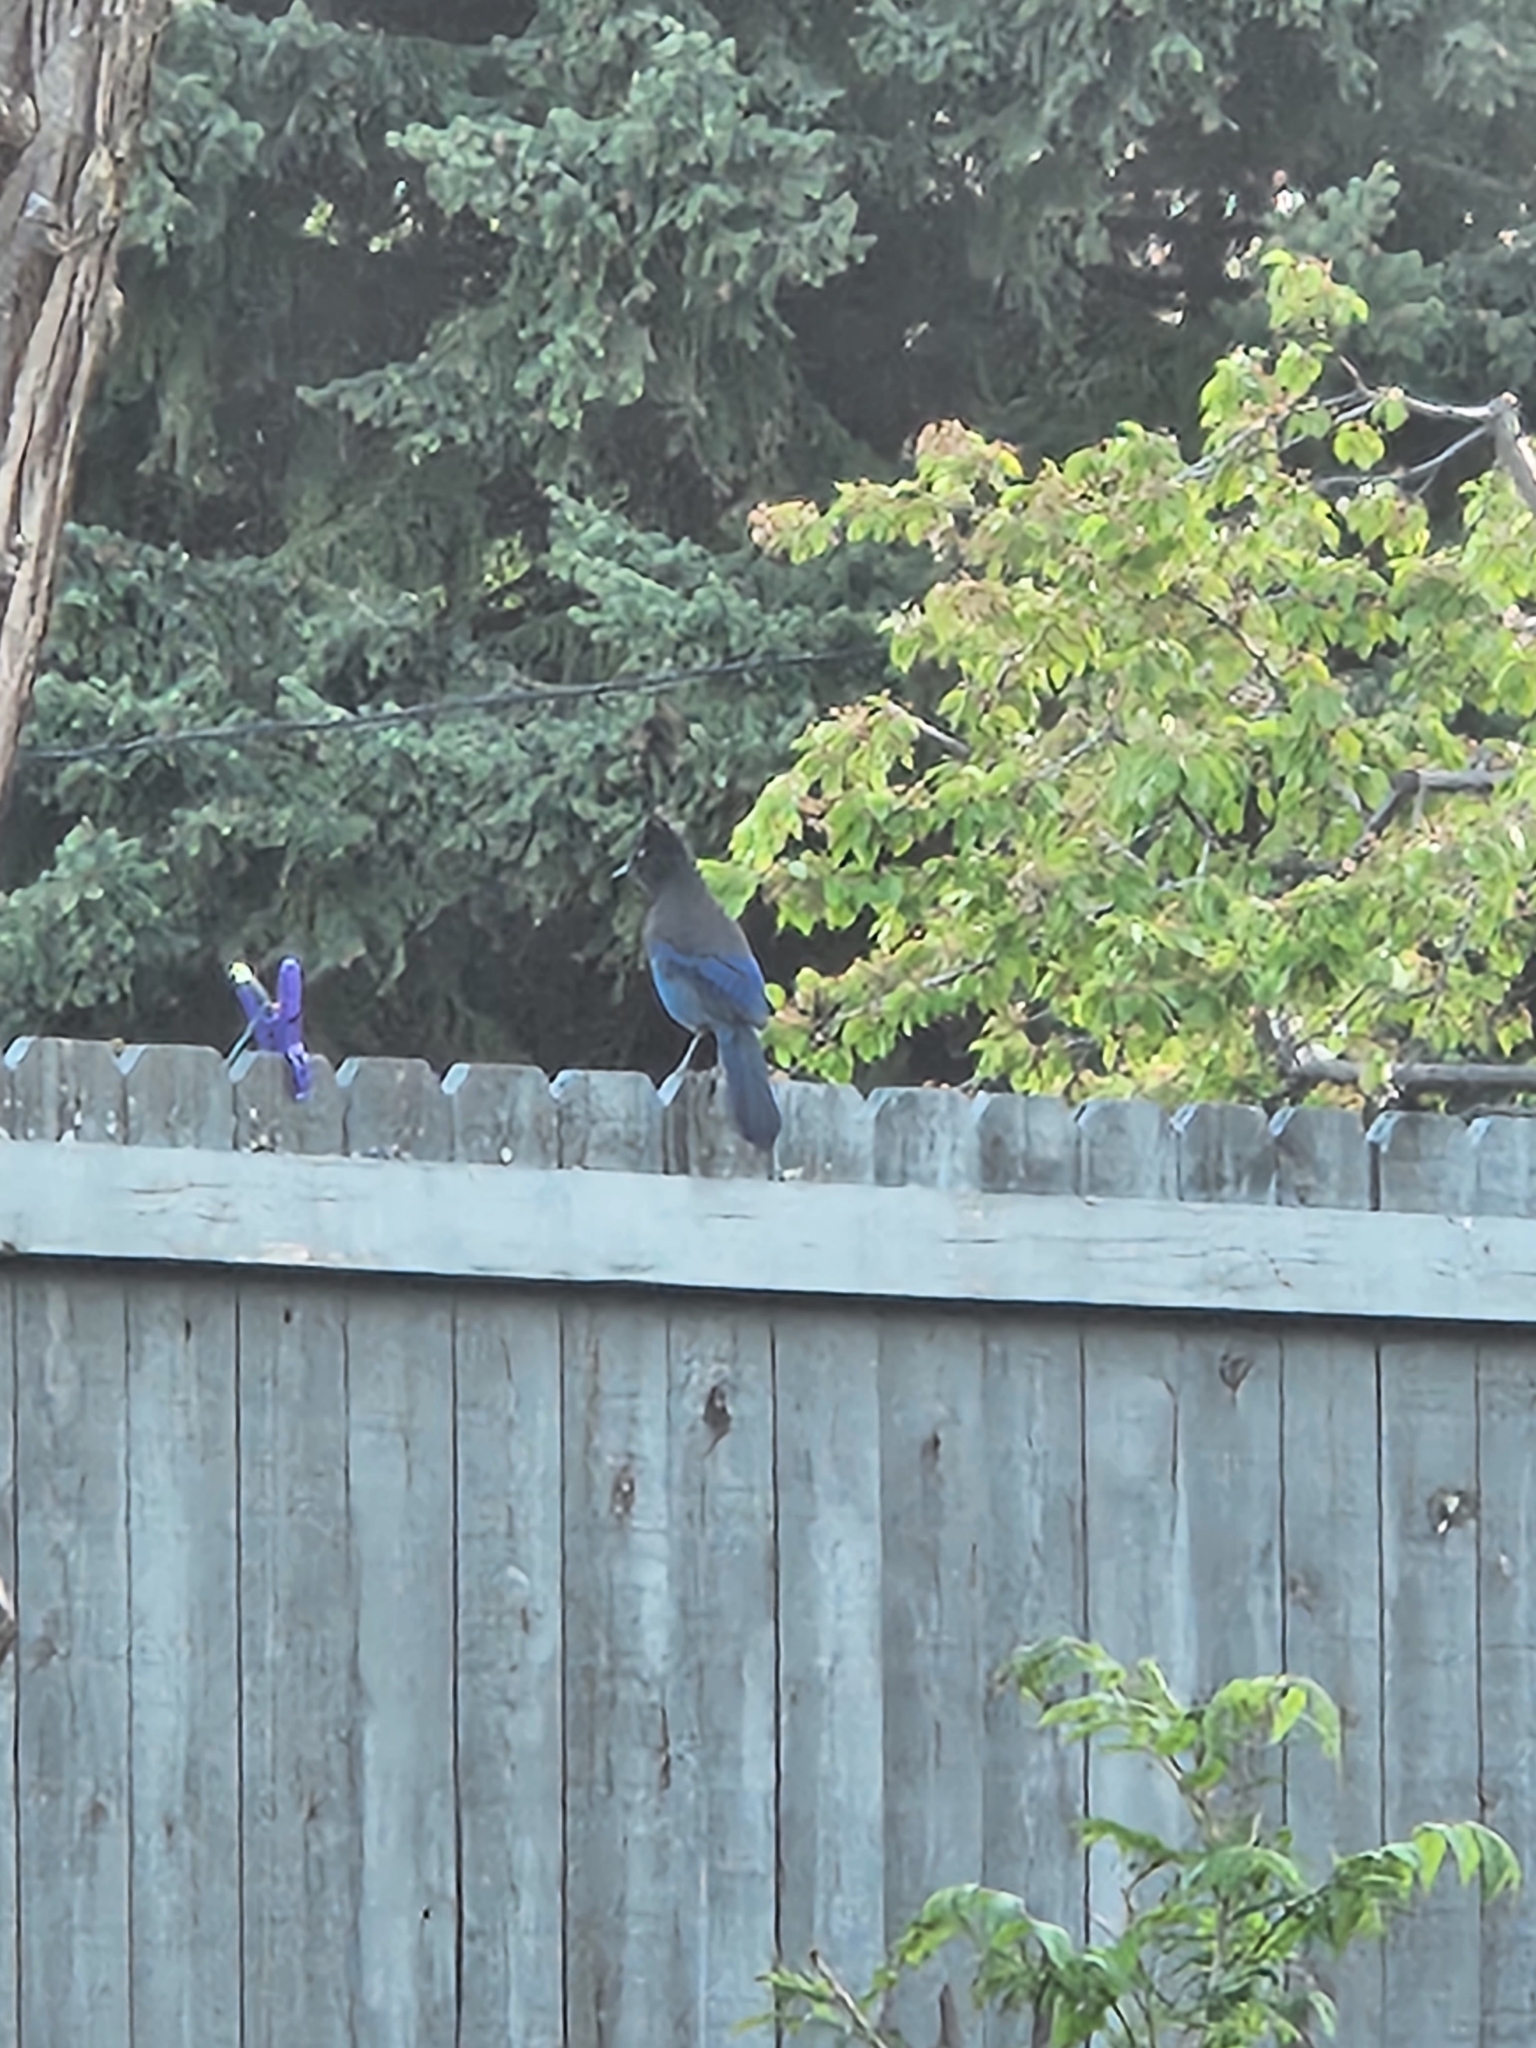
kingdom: Animalia
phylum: Chordata
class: Aves
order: Passeriformes
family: Corvidae
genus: Cyanocitta
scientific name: Cyanocitta stelleri
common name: Steller's jay
